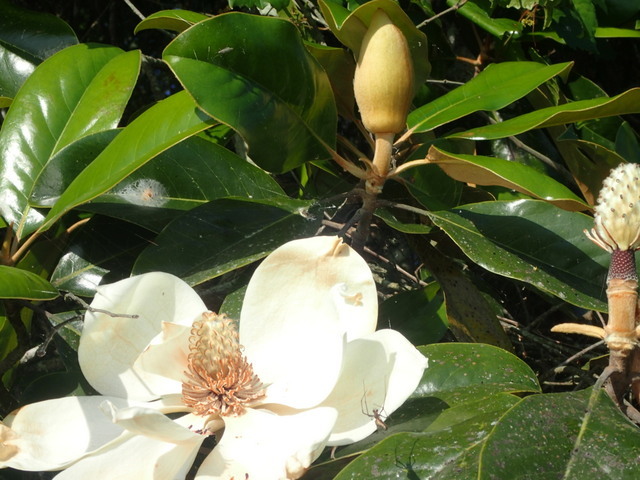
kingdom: Plantae
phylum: Tracheophyta
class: Magnoliopsida
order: Magnoliales
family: Magnoliaceae
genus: Magnolia
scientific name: Magnolia grandiflora
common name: Southern magnolia
